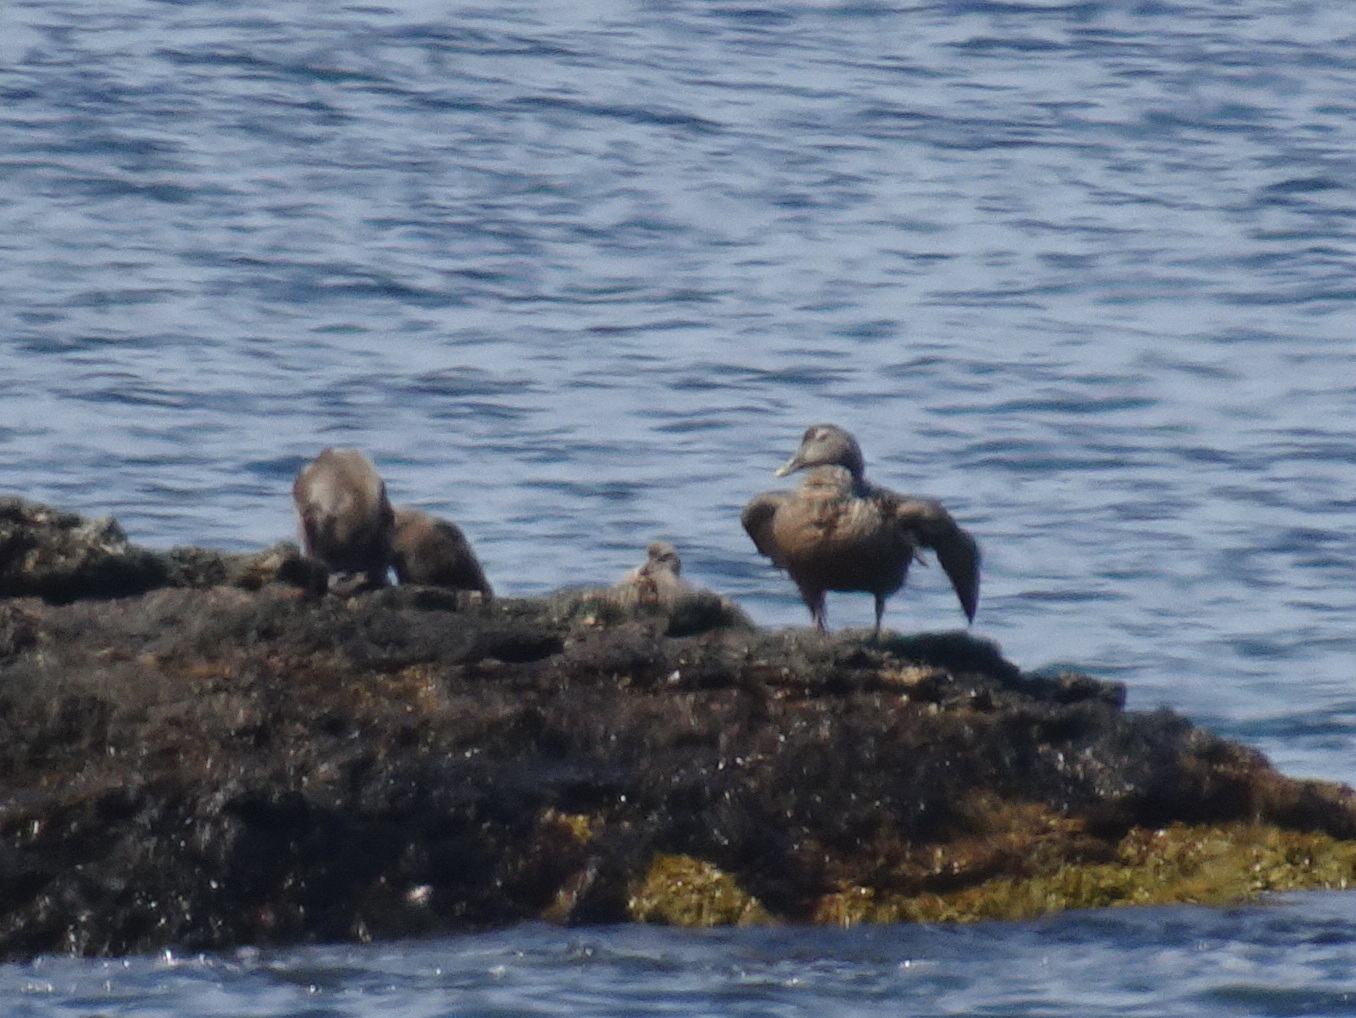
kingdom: Animalia
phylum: Chordata
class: Aves
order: Anseriformes
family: Anatidae
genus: Somateria
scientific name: Somateria mollissima
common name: Common eider
